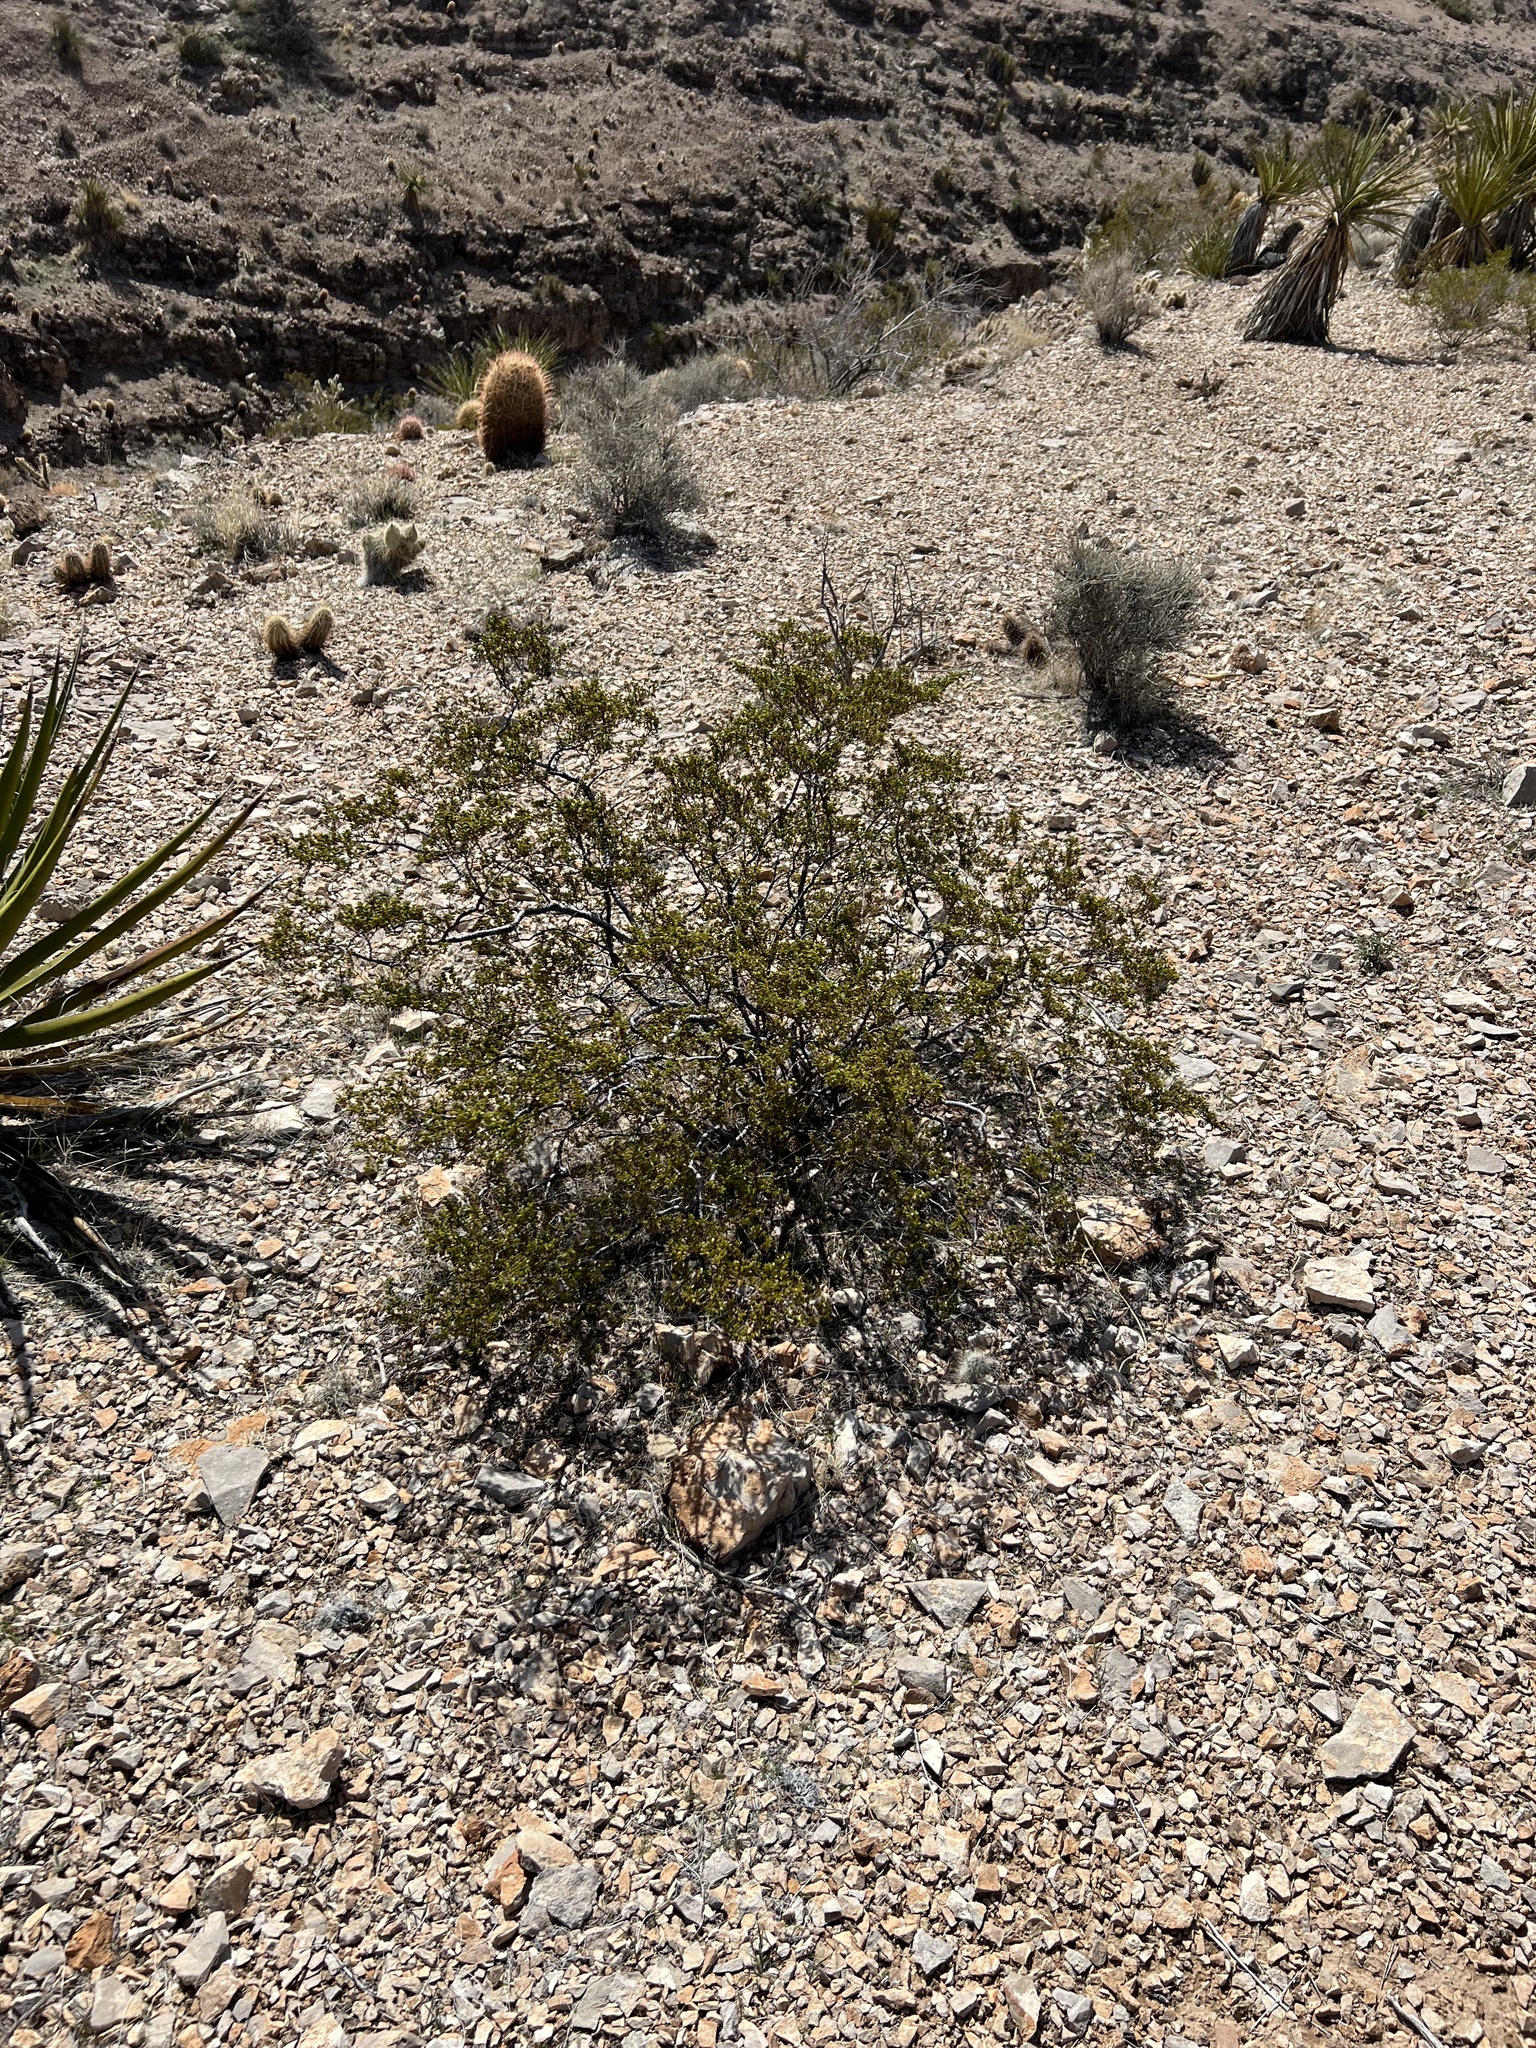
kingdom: Plantae
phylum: Tracheophyta
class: Magnoliopsida
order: Zygophyllales
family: Zygophyllaceae
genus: Larrea
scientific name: Larrea tridentata
